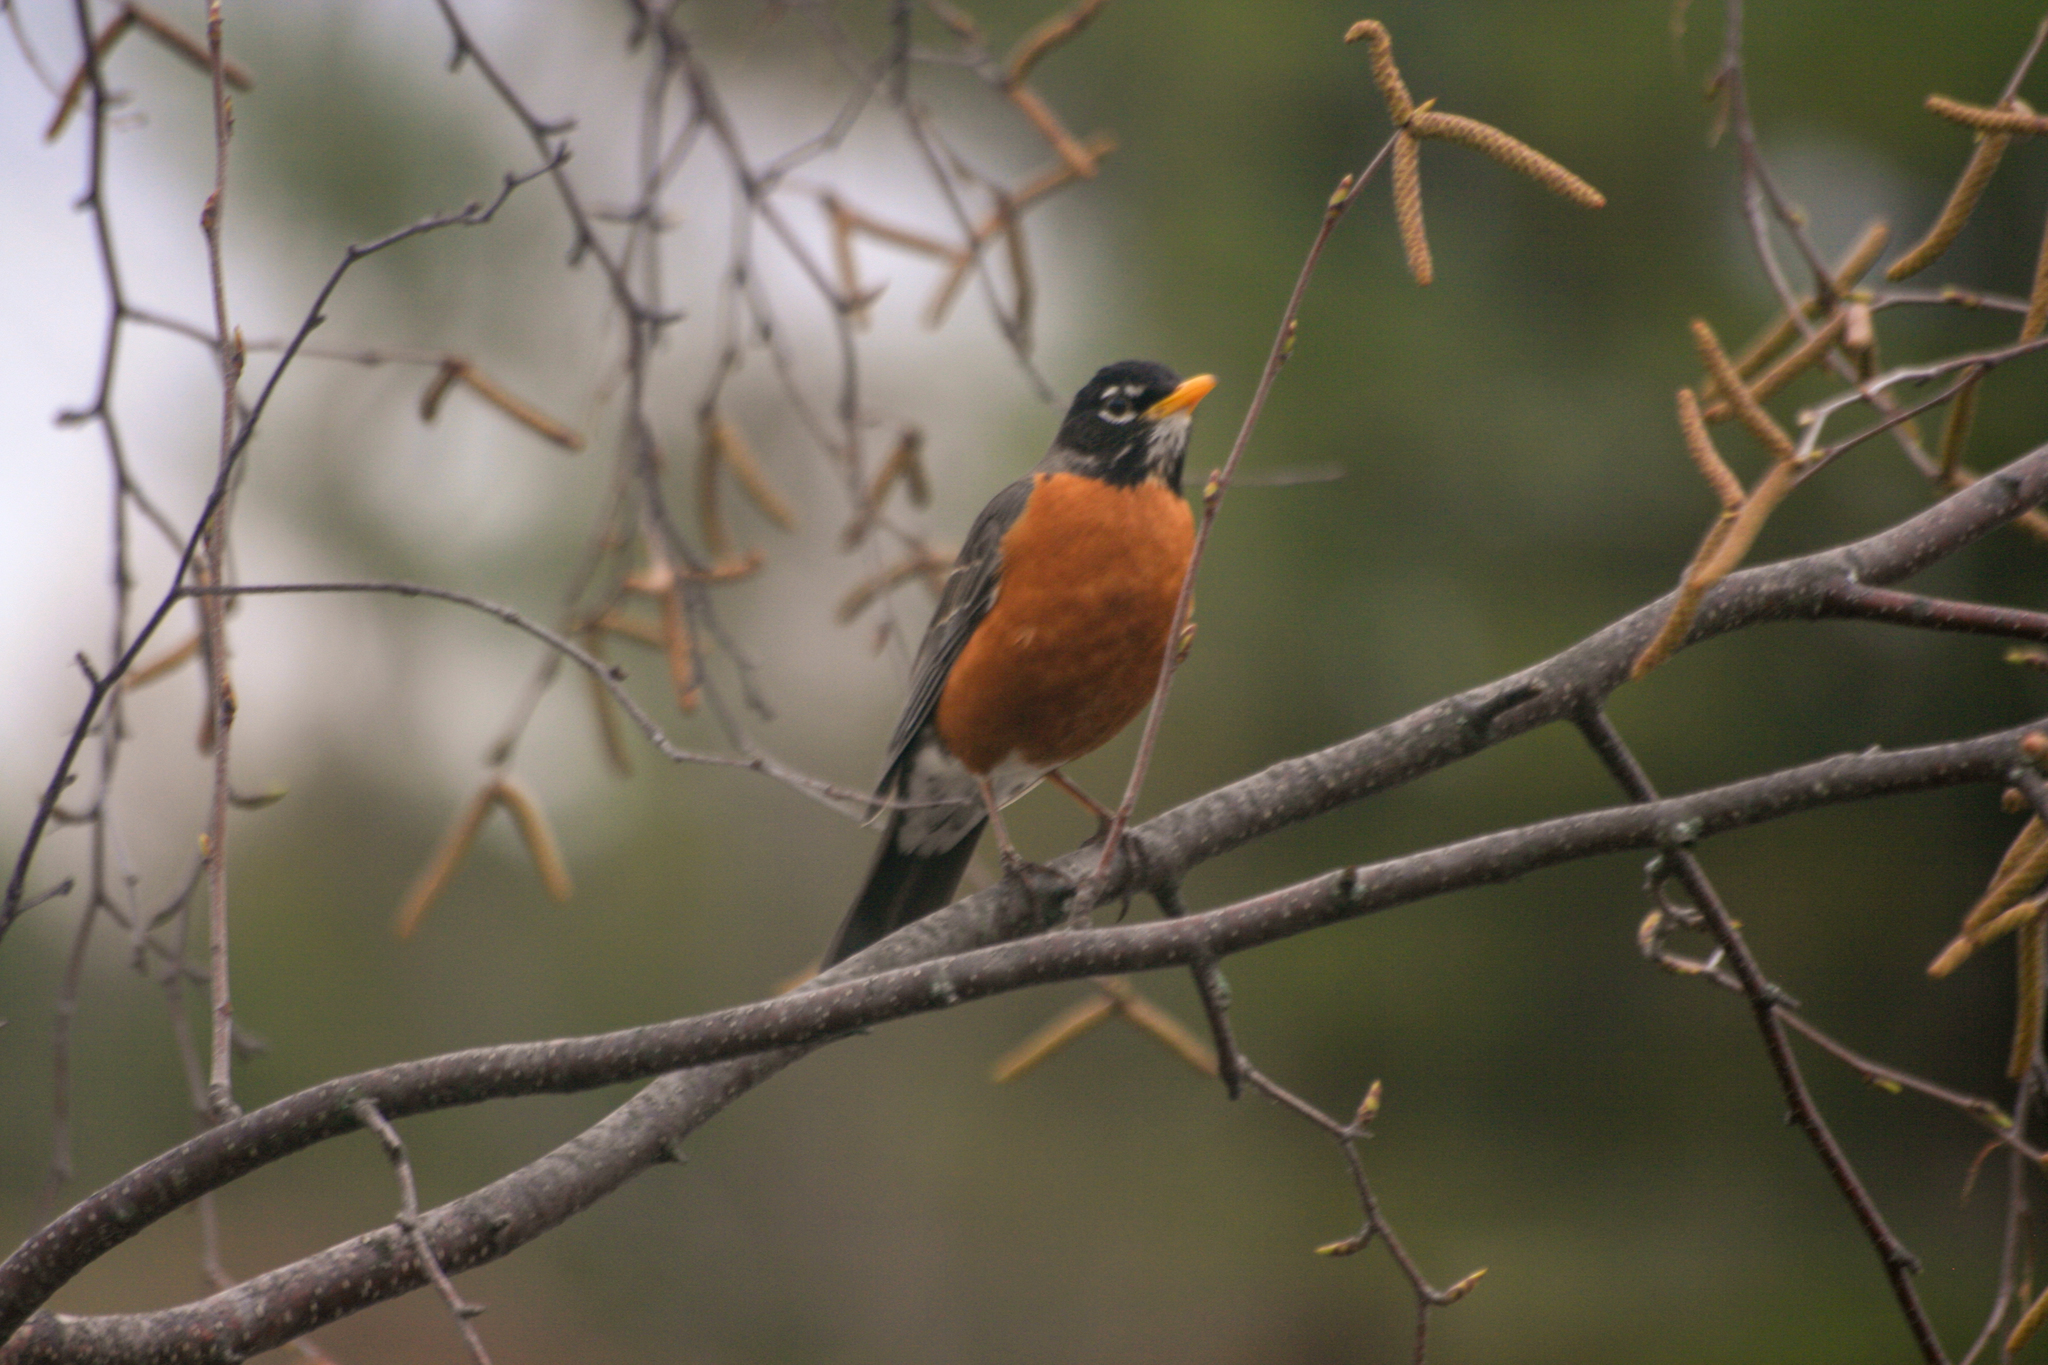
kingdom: Animalia
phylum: Chordata
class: Aves
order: Passeriformes
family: Turdidae
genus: Turdus
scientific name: Turdus migratorius
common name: American robin
